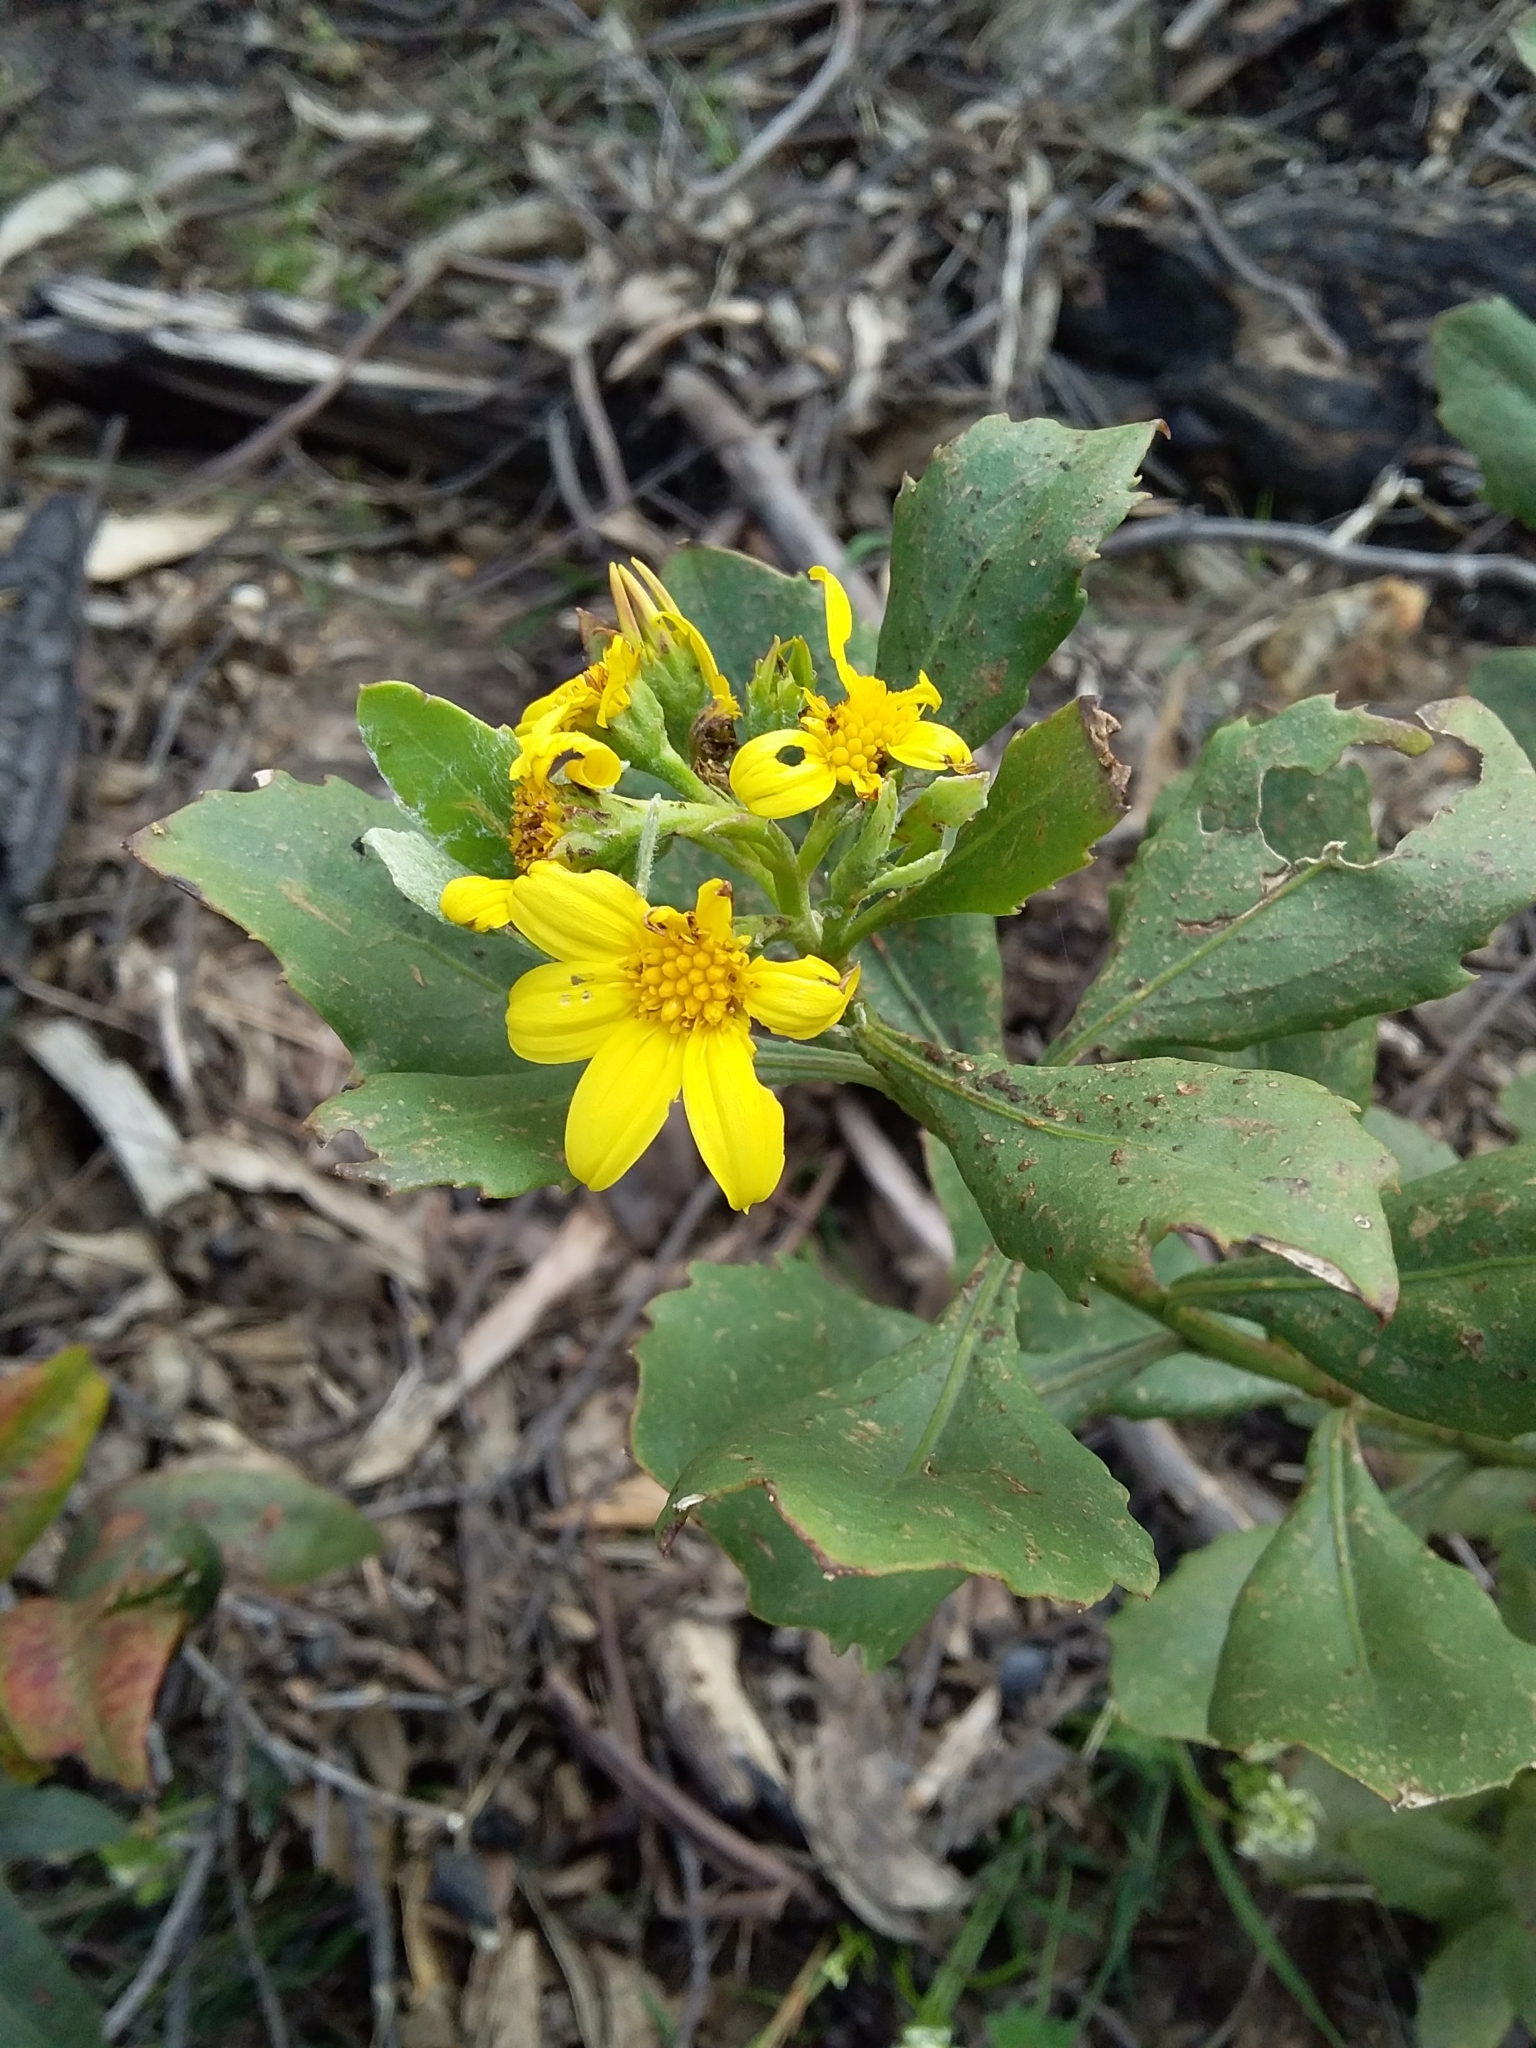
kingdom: Plantae
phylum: Tracheophyta
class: Magnoliopsida
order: Asterales
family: Asteraceae
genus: Osteospermum
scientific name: Osteospermum moniliferum
